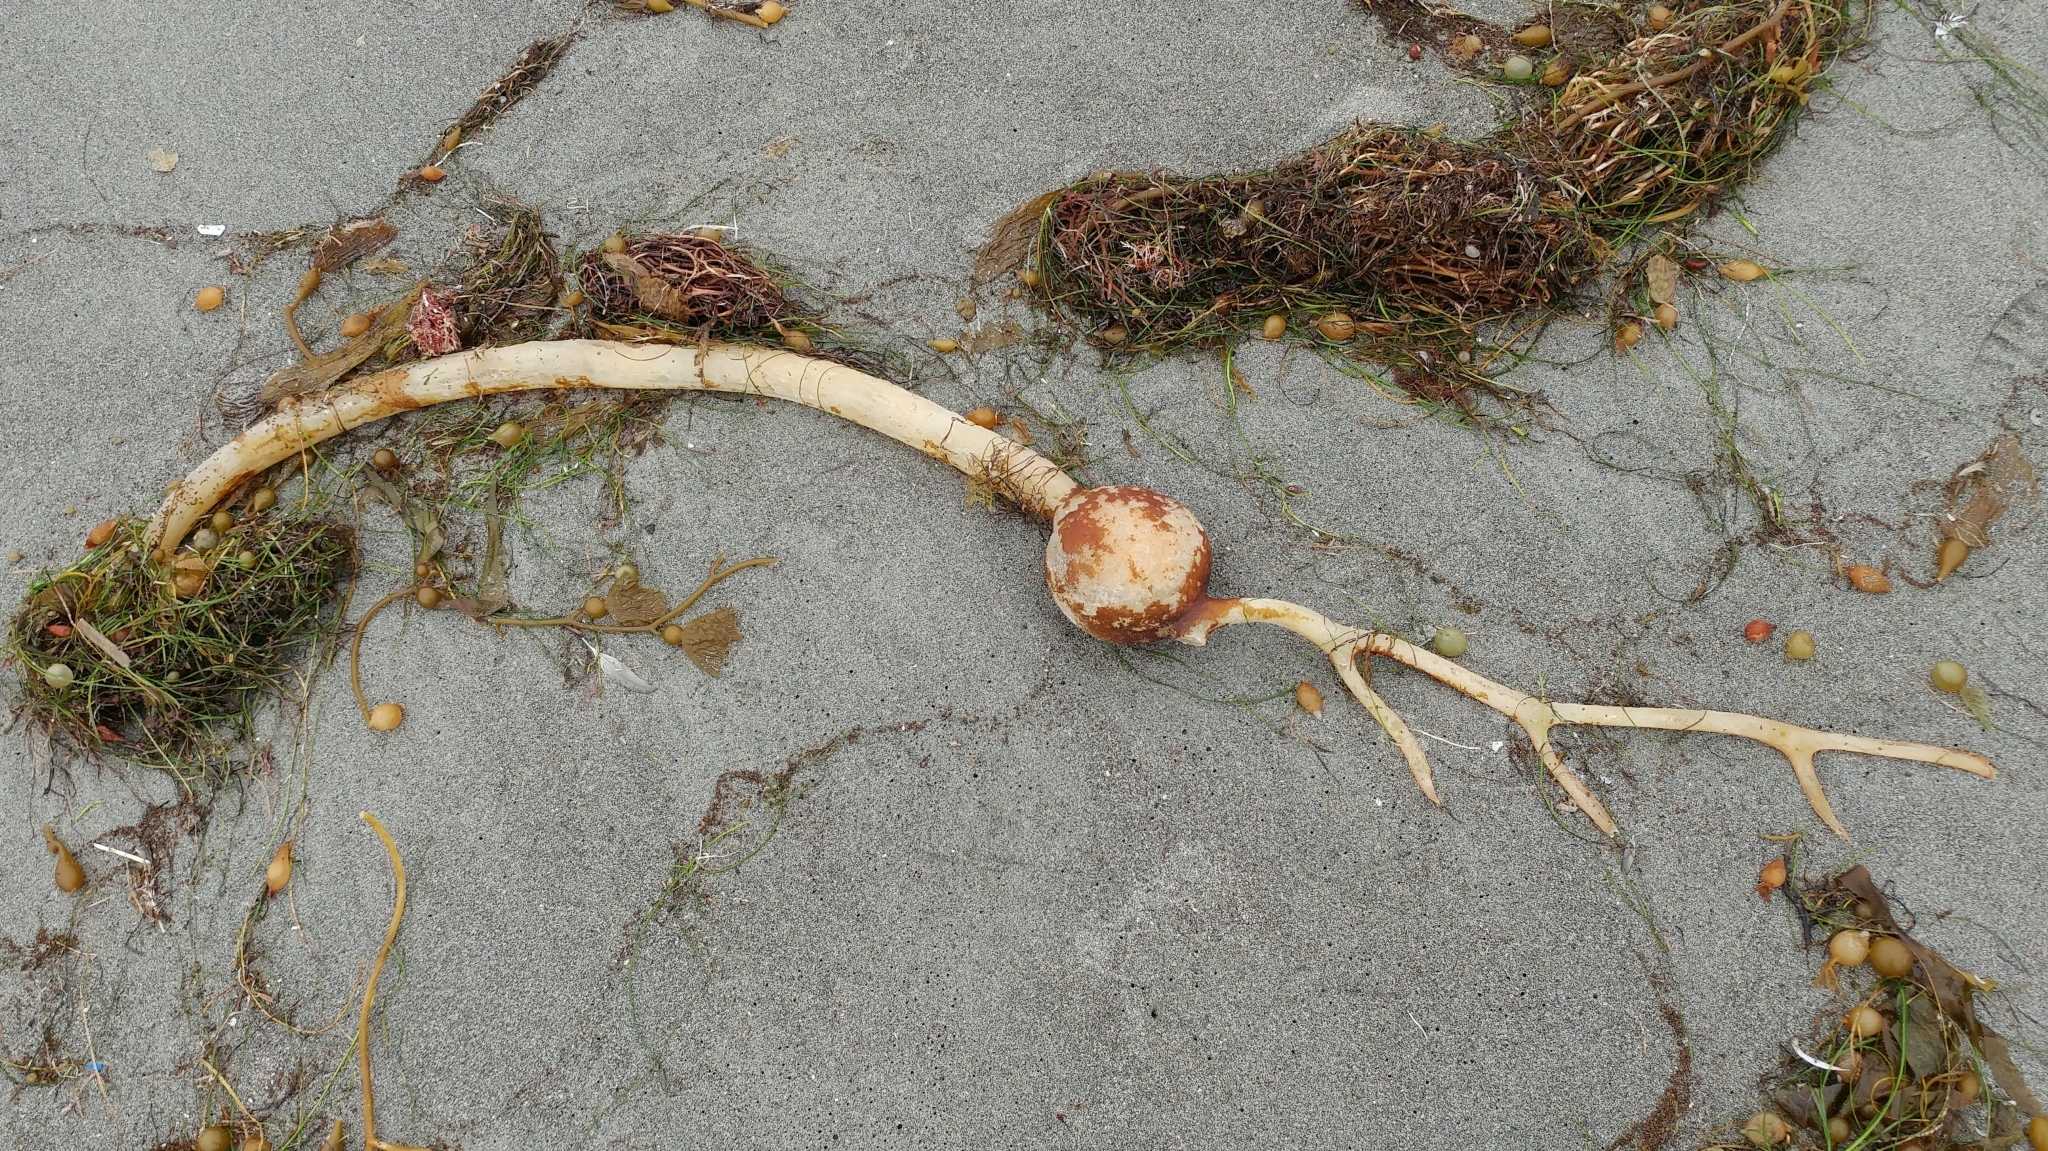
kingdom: Chromista
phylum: Ochrophyta
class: Phaeophyceae
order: Laminariales
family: Laminariaceae
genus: Pelagophycus
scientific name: Pelagophycus porra
